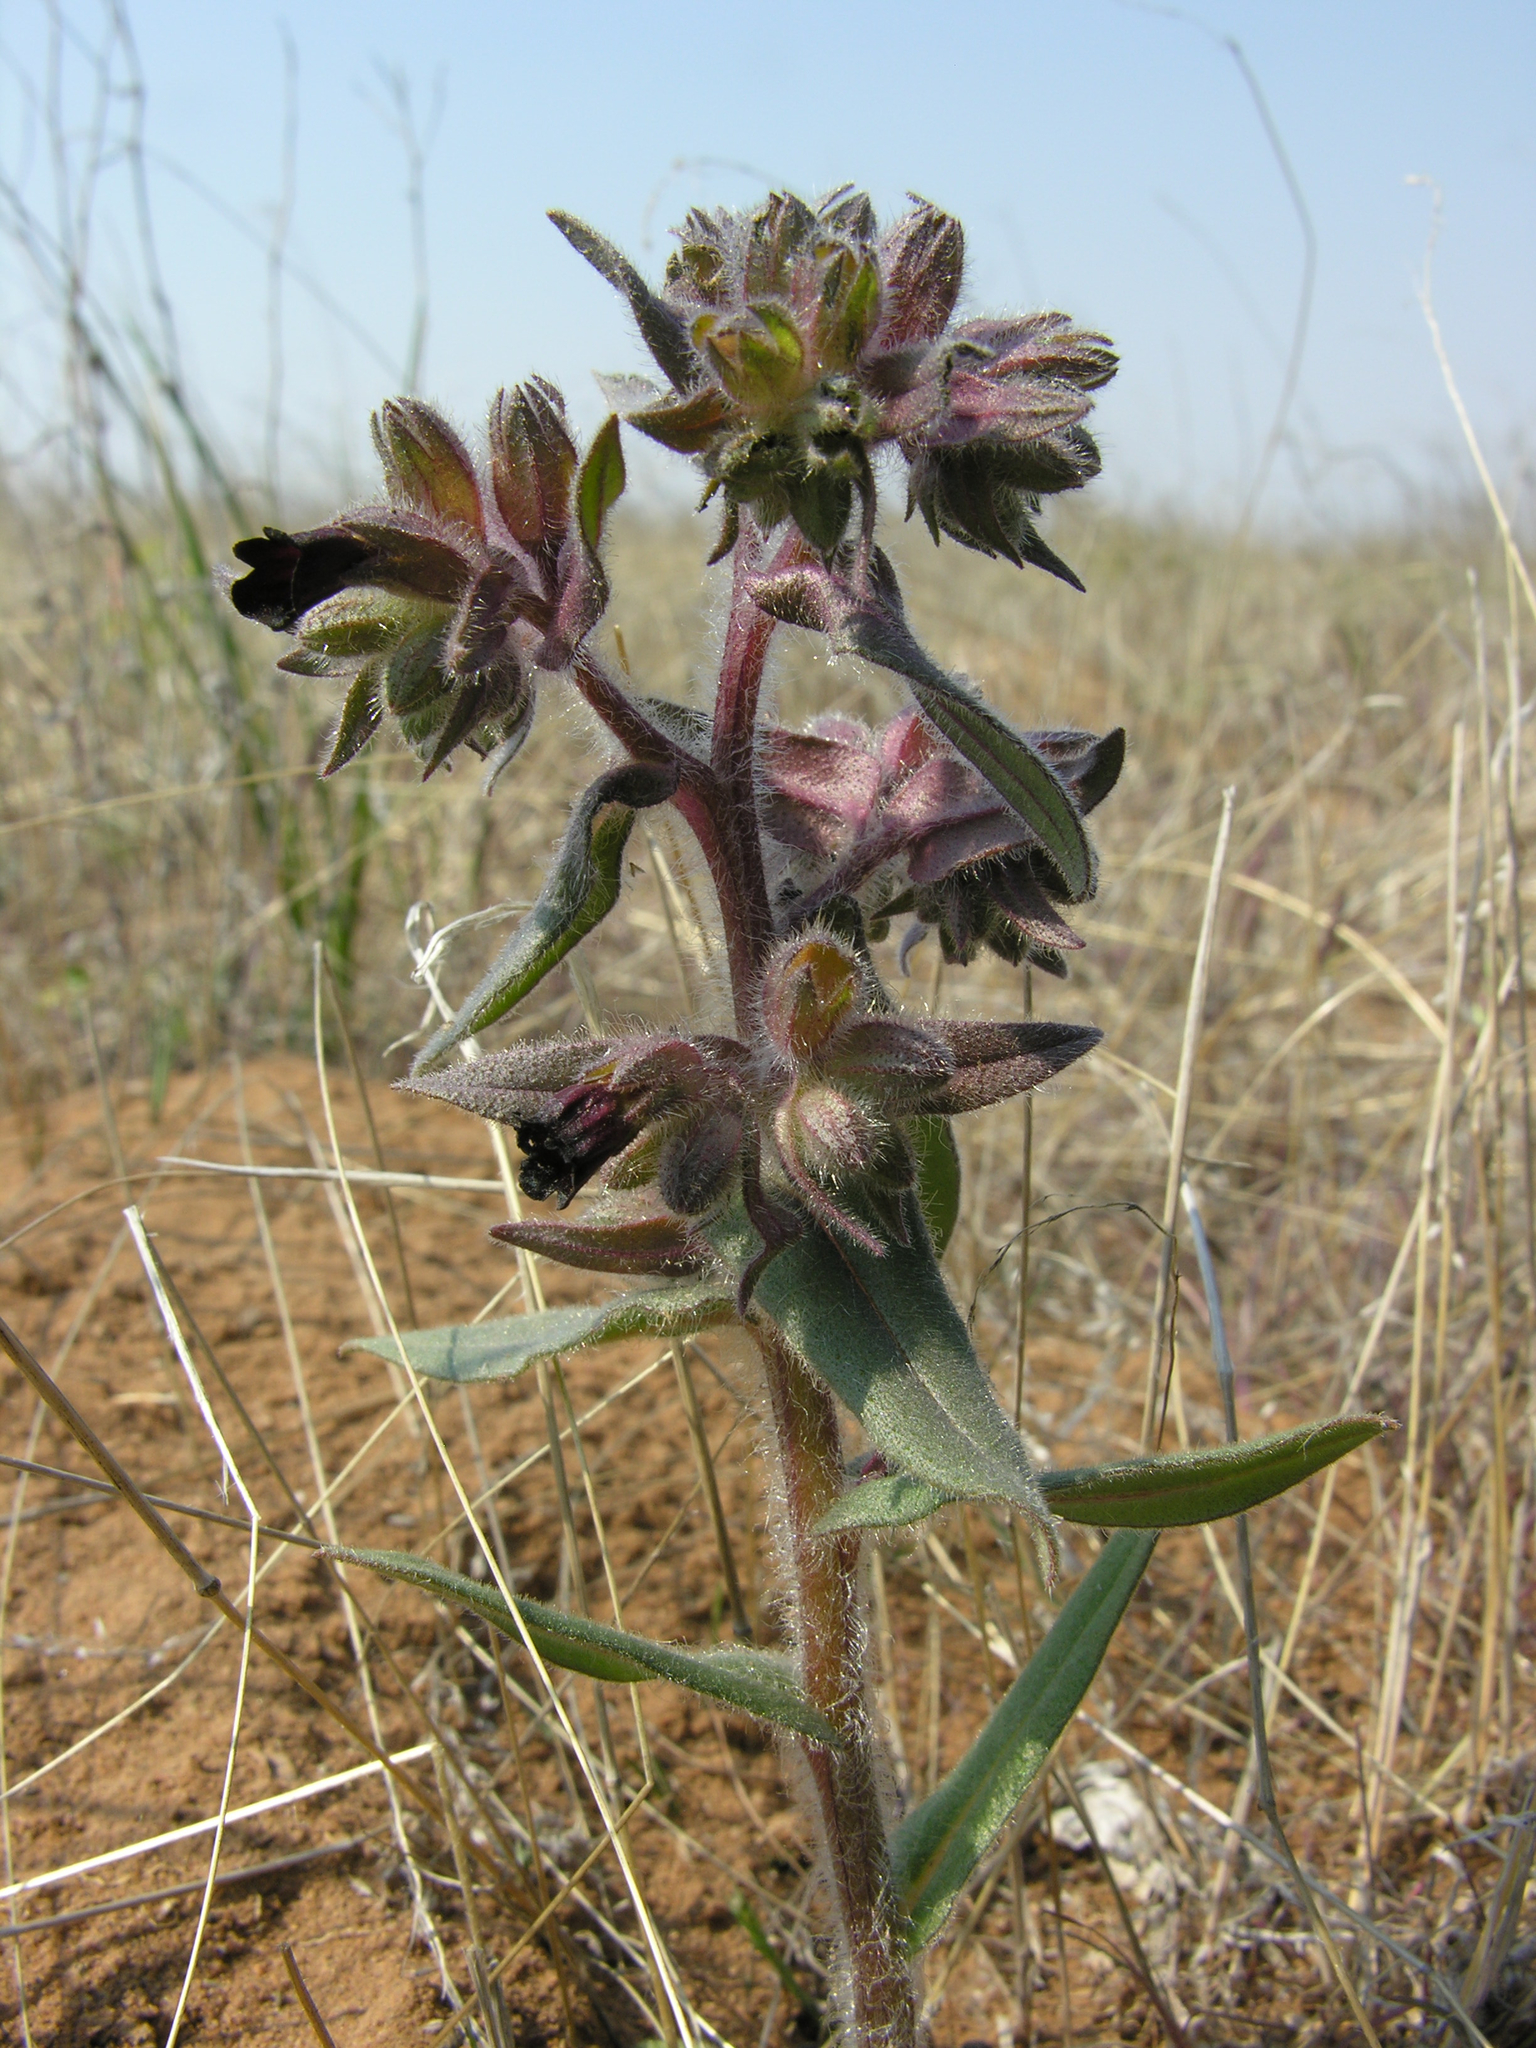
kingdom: Plantae
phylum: Tracheophyta
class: Magnoliopsida
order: Boraginales
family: Boraginaceae
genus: Nonea
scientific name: Nonea pulla
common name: Brown nonea
